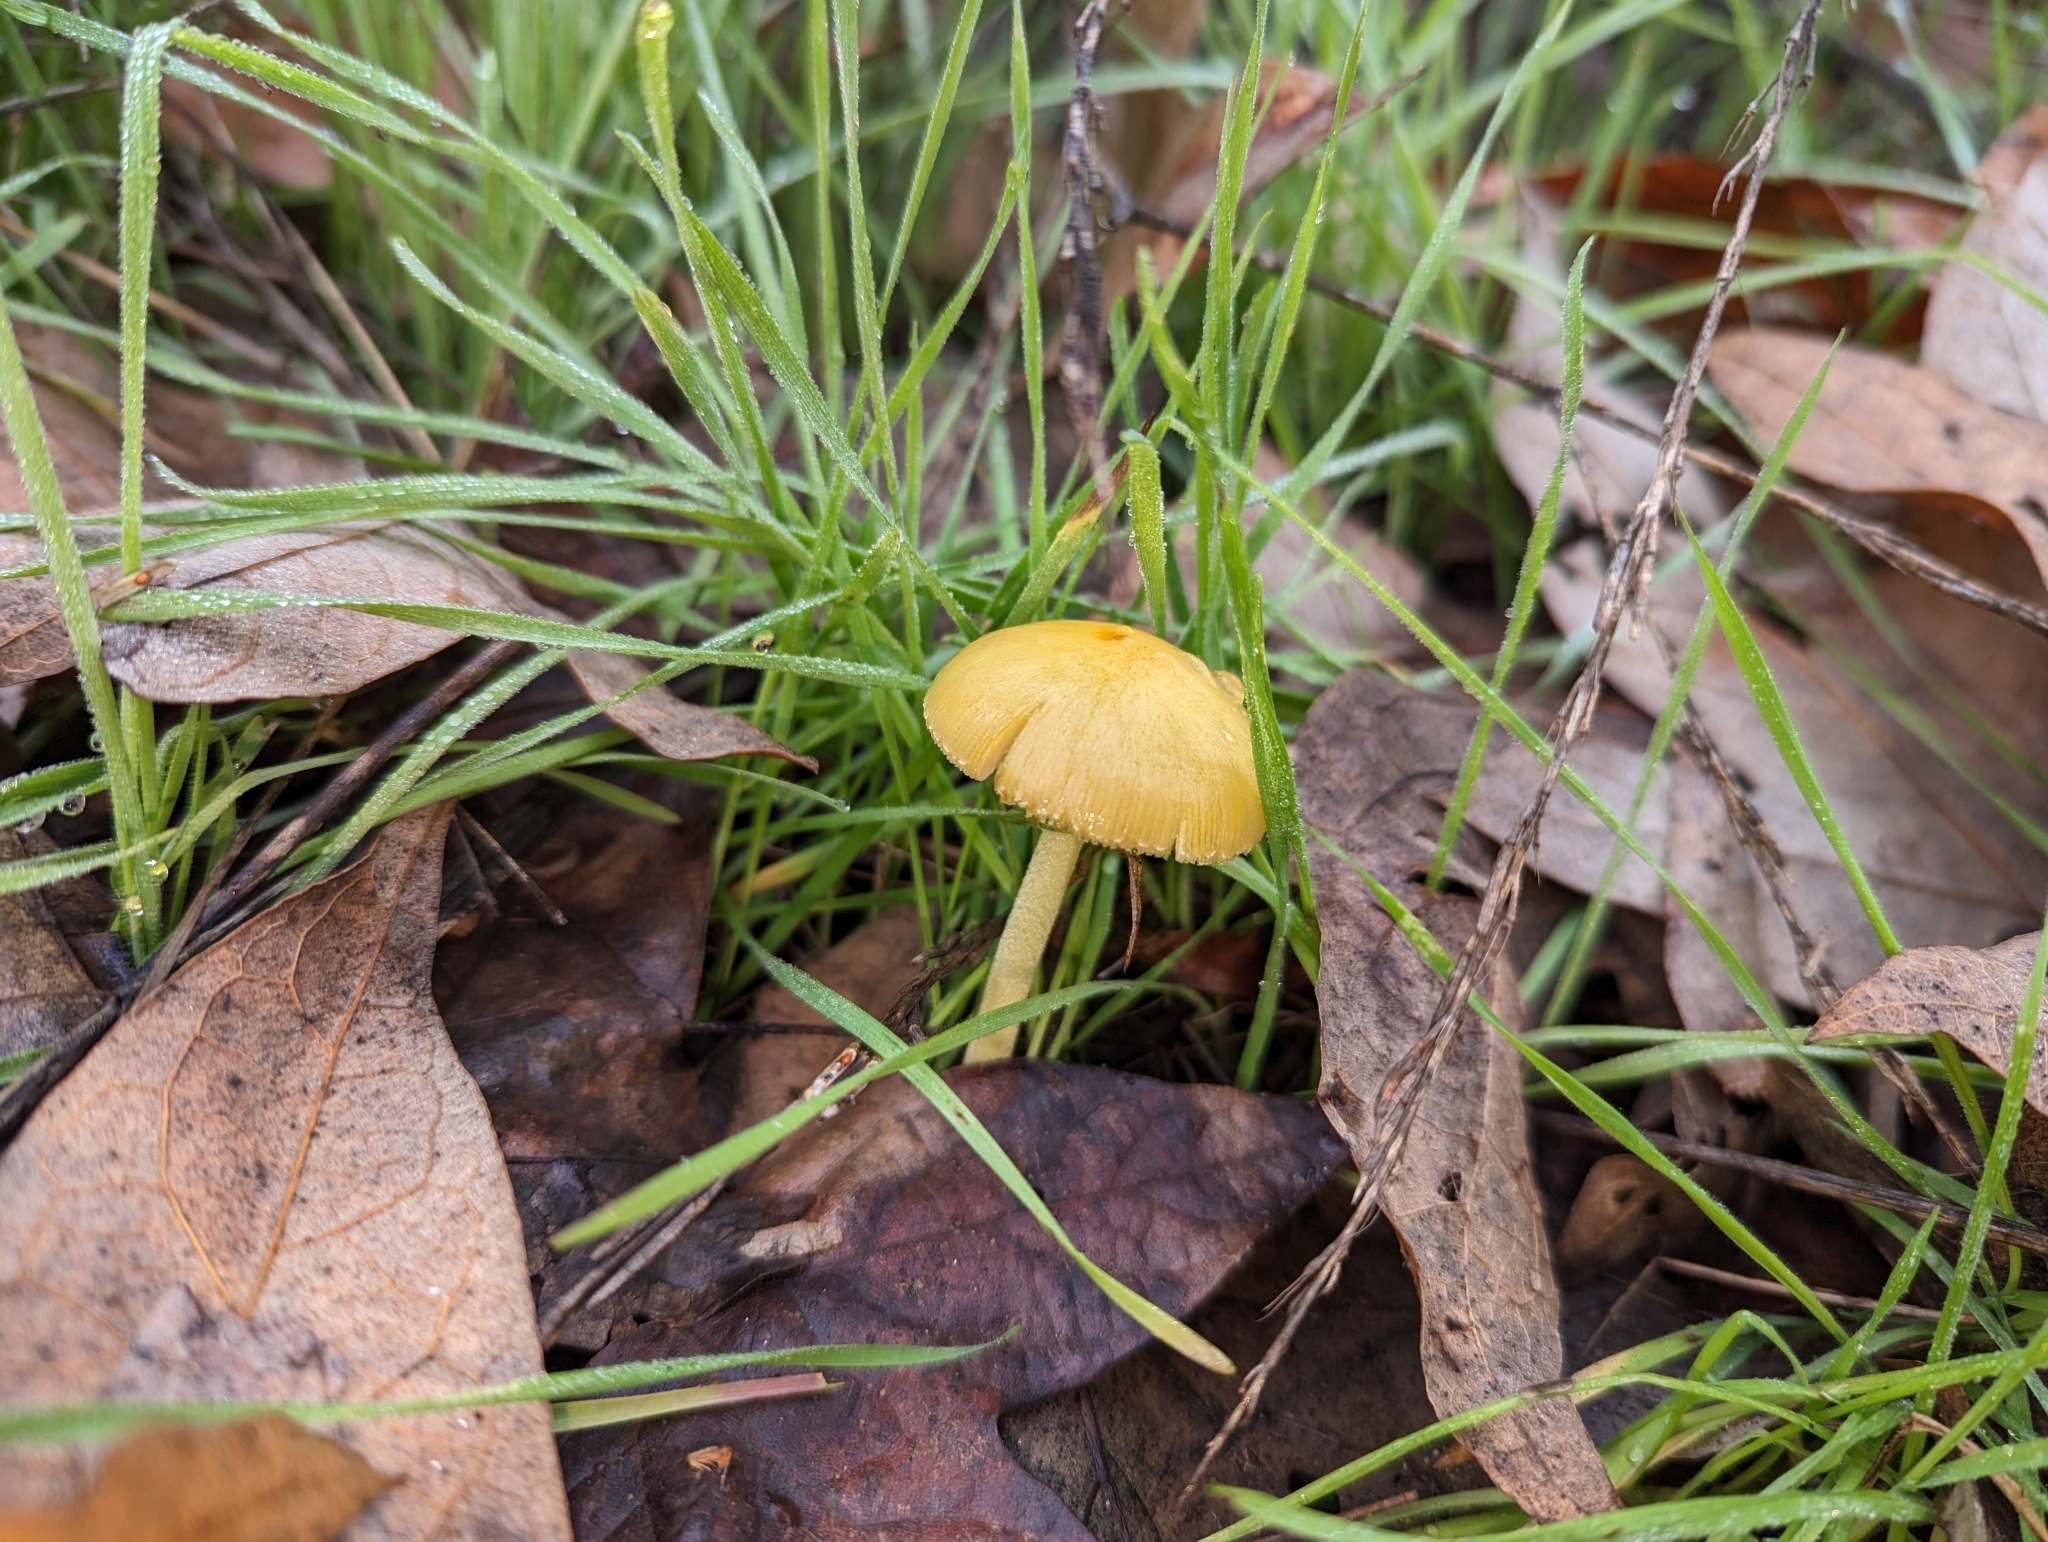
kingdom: Fungi
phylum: Basidiomycota
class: Agaricomycetes
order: Agaricales
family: Bolbitiaceae
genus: Bolbitius
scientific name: Bolbitius titubans
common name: Yellow fieldcap
